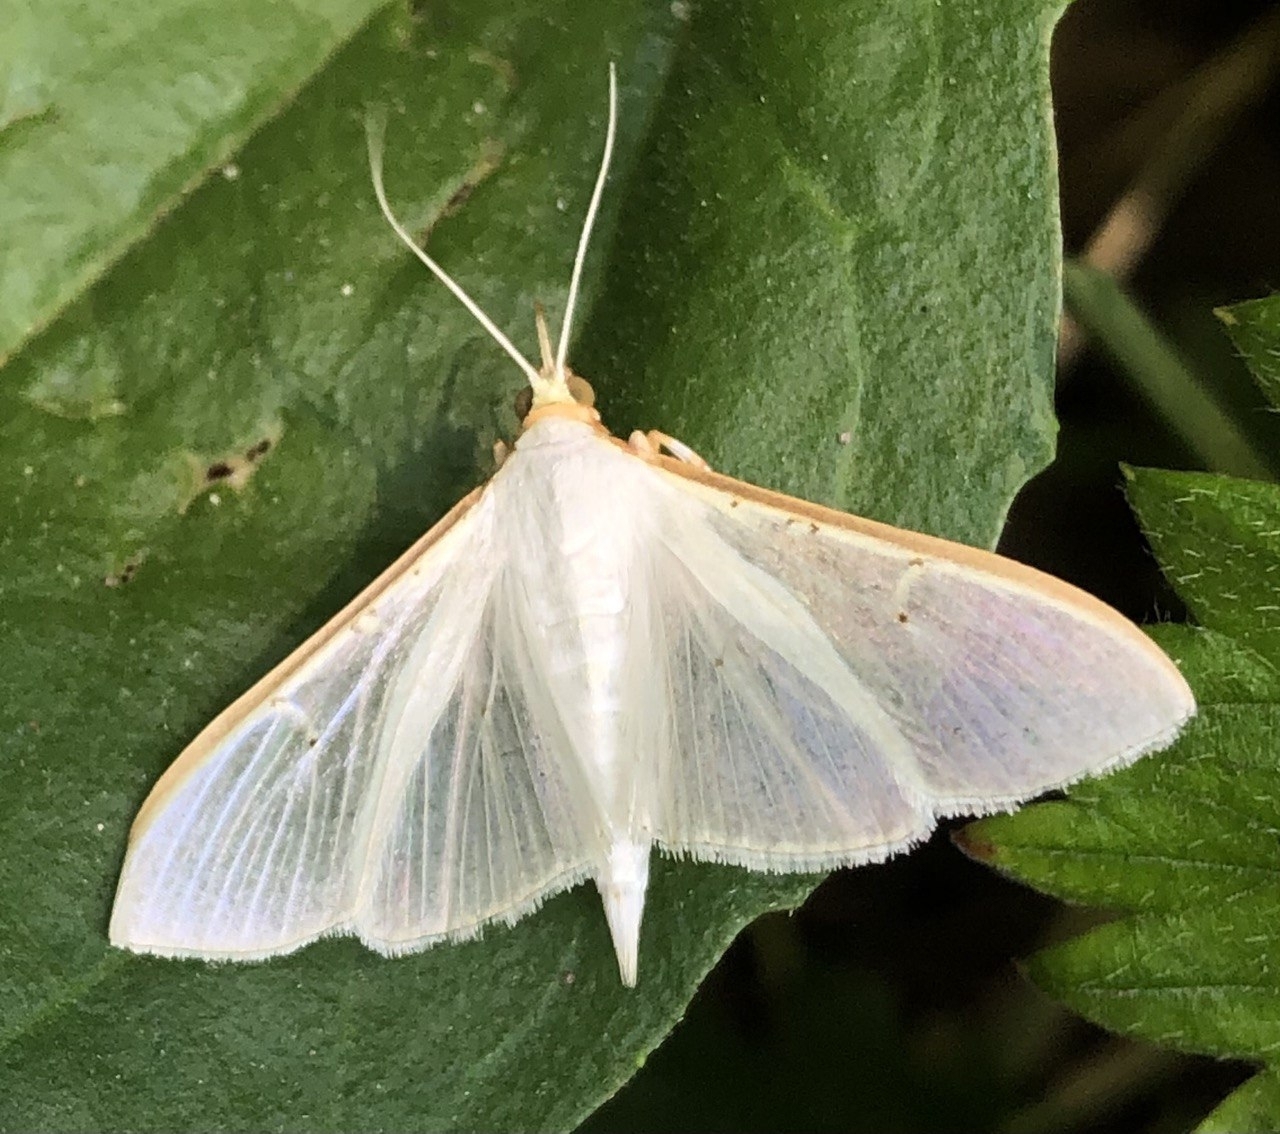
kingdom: Animalia
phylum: Arthropoda
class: Insecta
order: Lepidoptera
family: Crambidae
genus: Palpita
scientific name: Palpita vitrealis
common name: Olive-tree pearl
